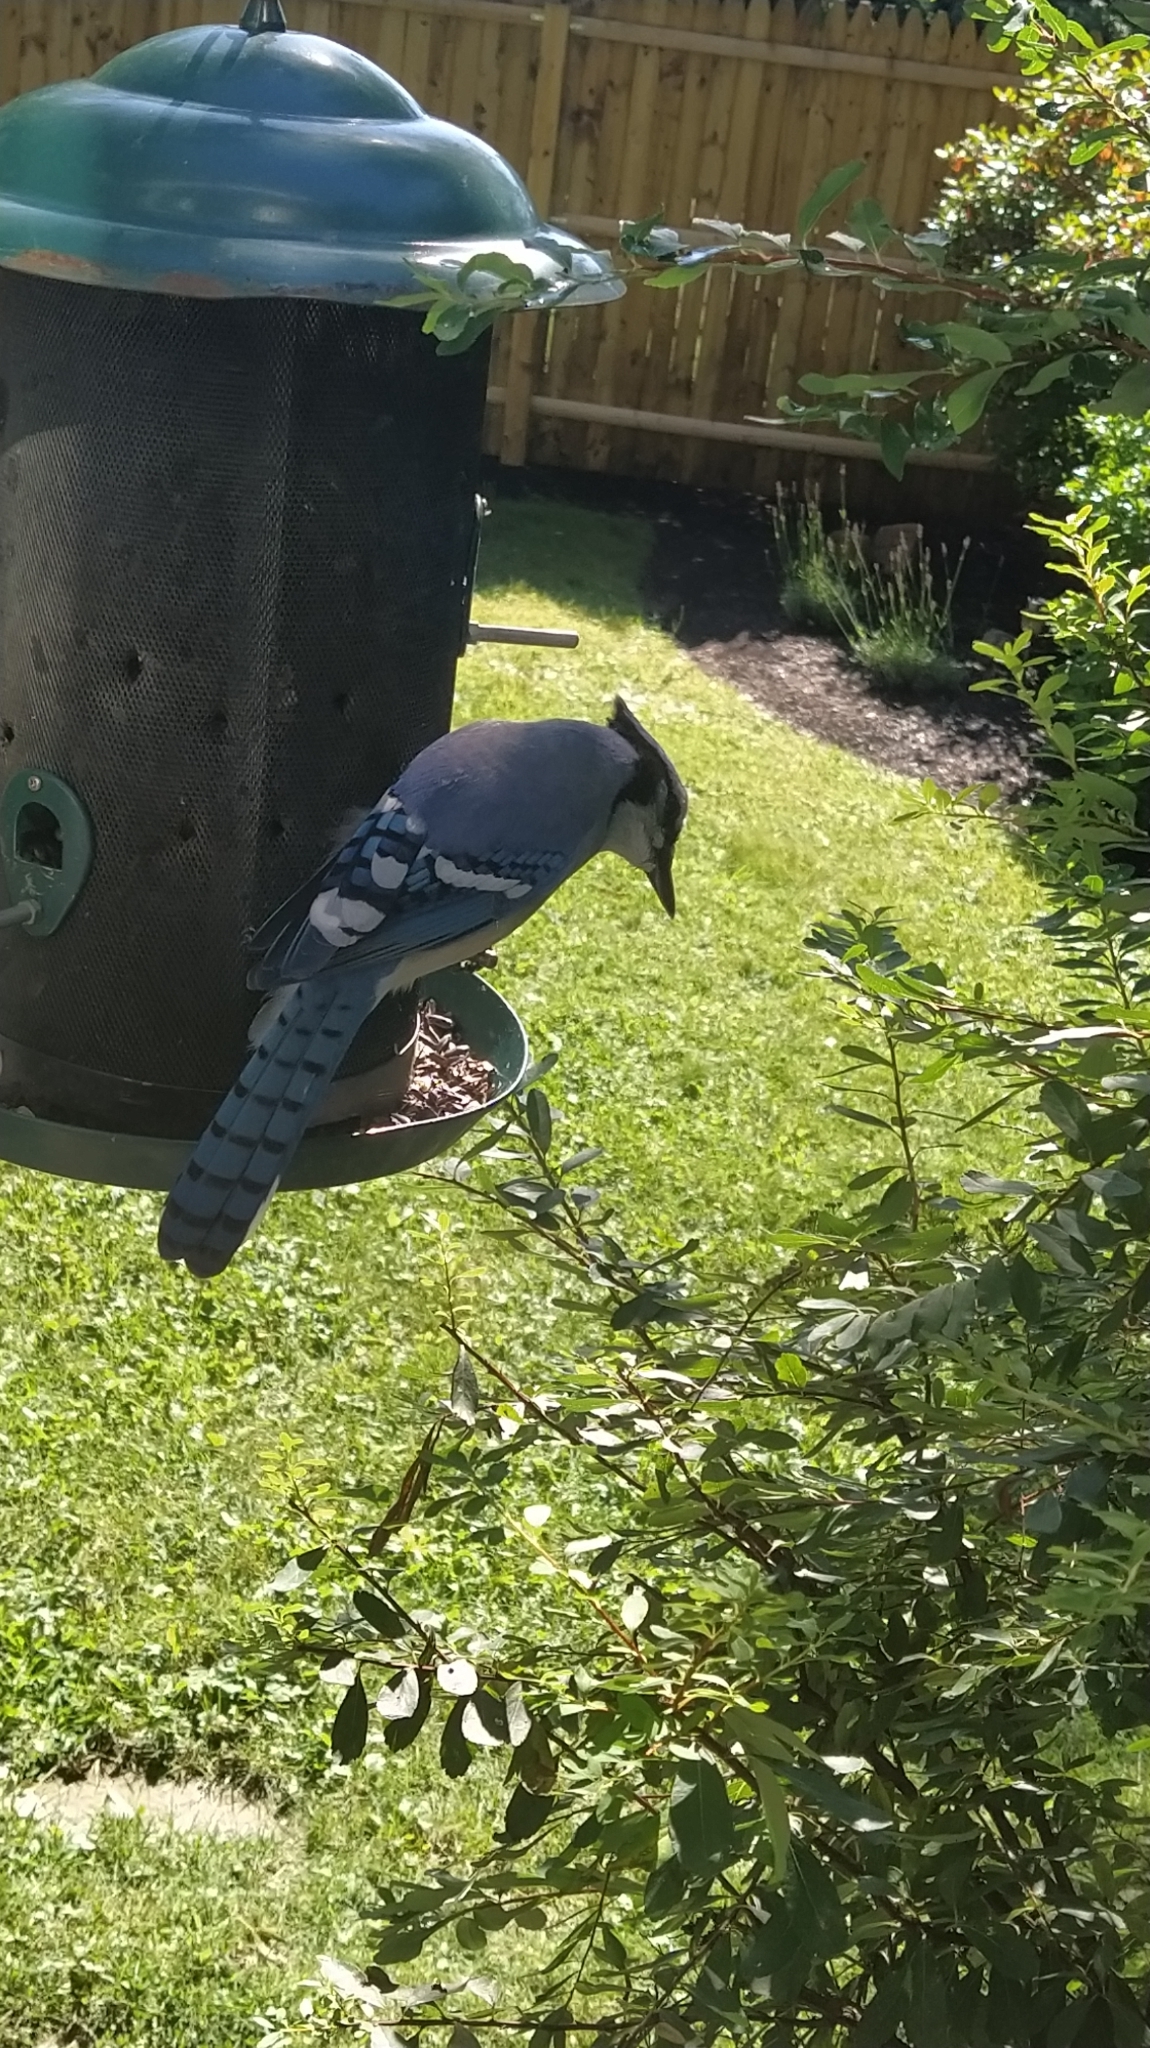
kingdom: Animalia
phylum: Chordata
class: Aves
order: Passeriformes
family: Corvidae
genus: Cyanocitta
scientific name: Cyanocitta cristata
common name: Blue jay
